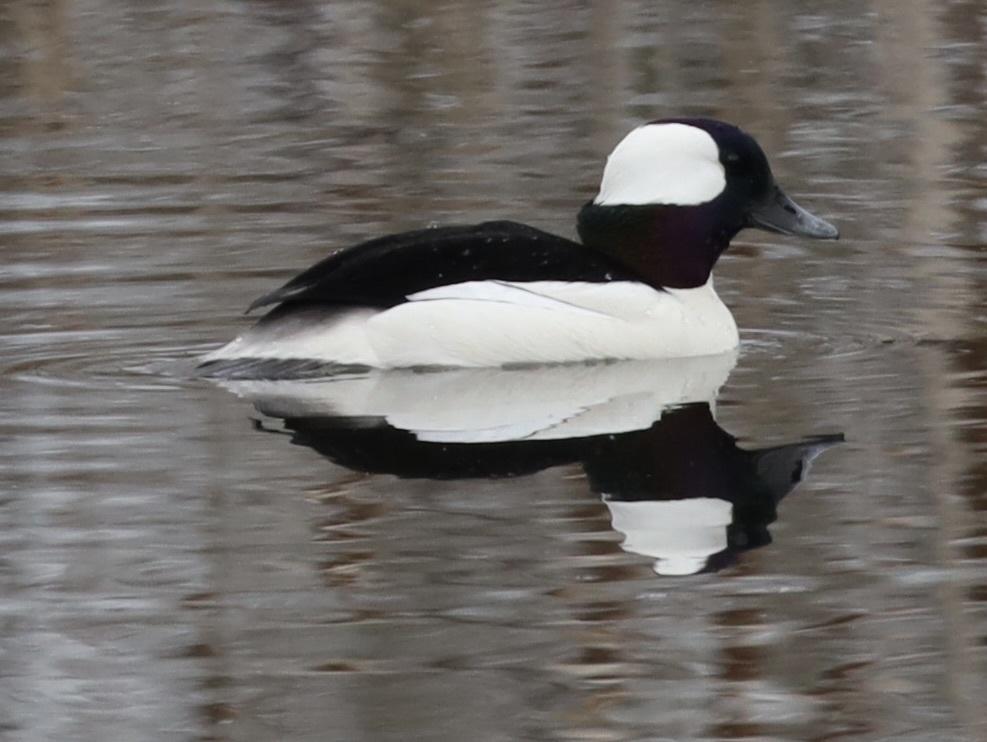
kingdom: Animalia
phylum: Chordata
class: Aves
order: Anseriformes
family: Anatidae
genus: Bucephala
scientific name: Bucephala albeola
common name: Bufflehead
